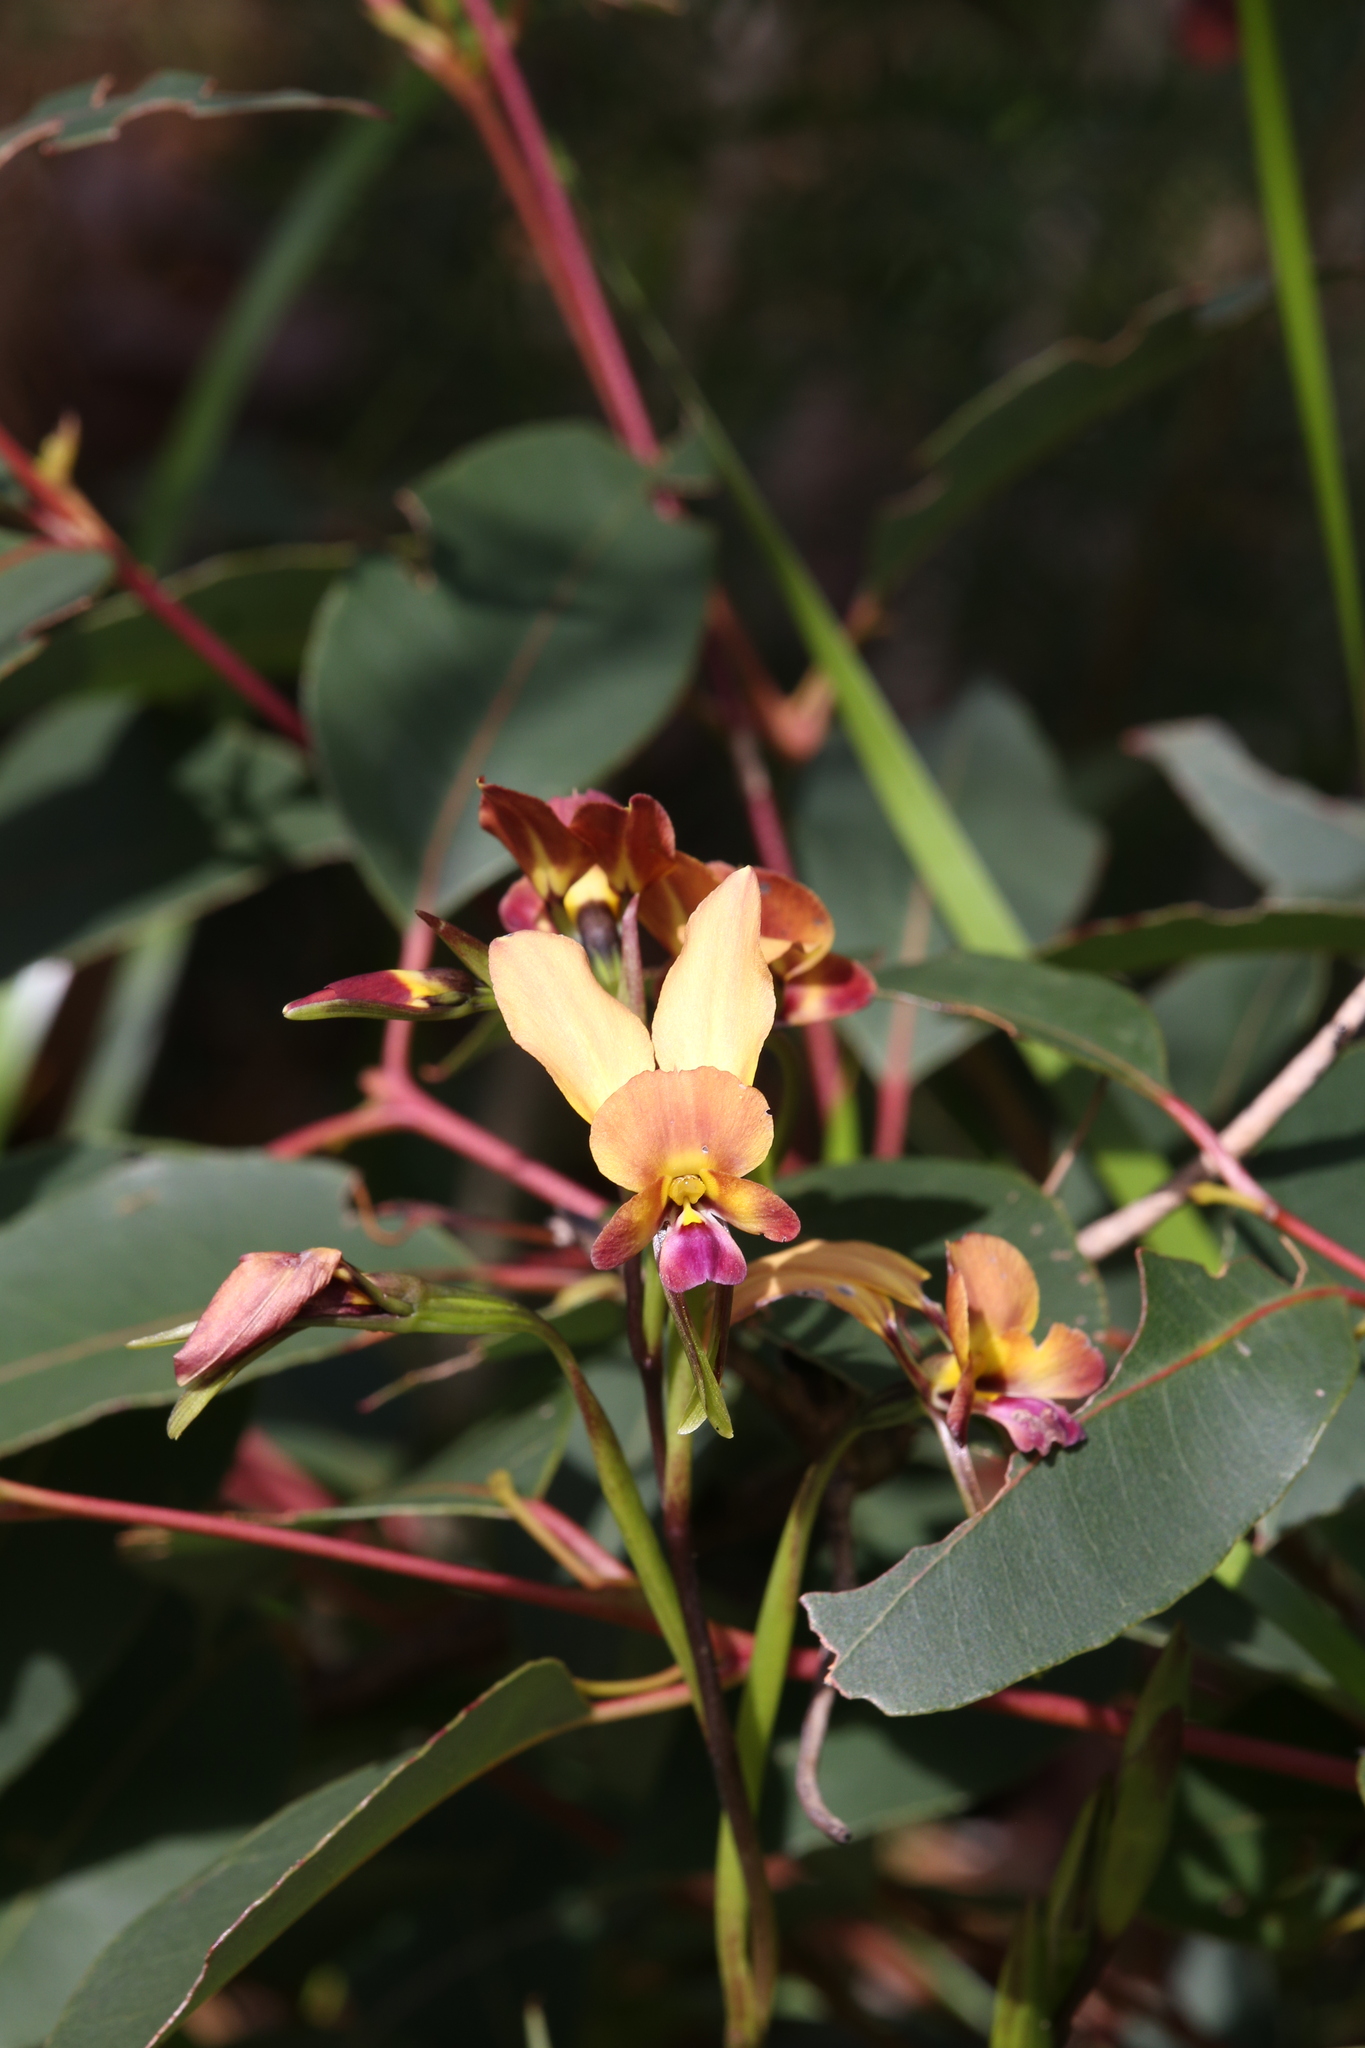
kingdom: Plantae
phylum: Tracheophyta
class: Liliopsida
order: Asparagales
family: Orchidaceae
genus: Diuris
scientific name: Diuris jonesii
